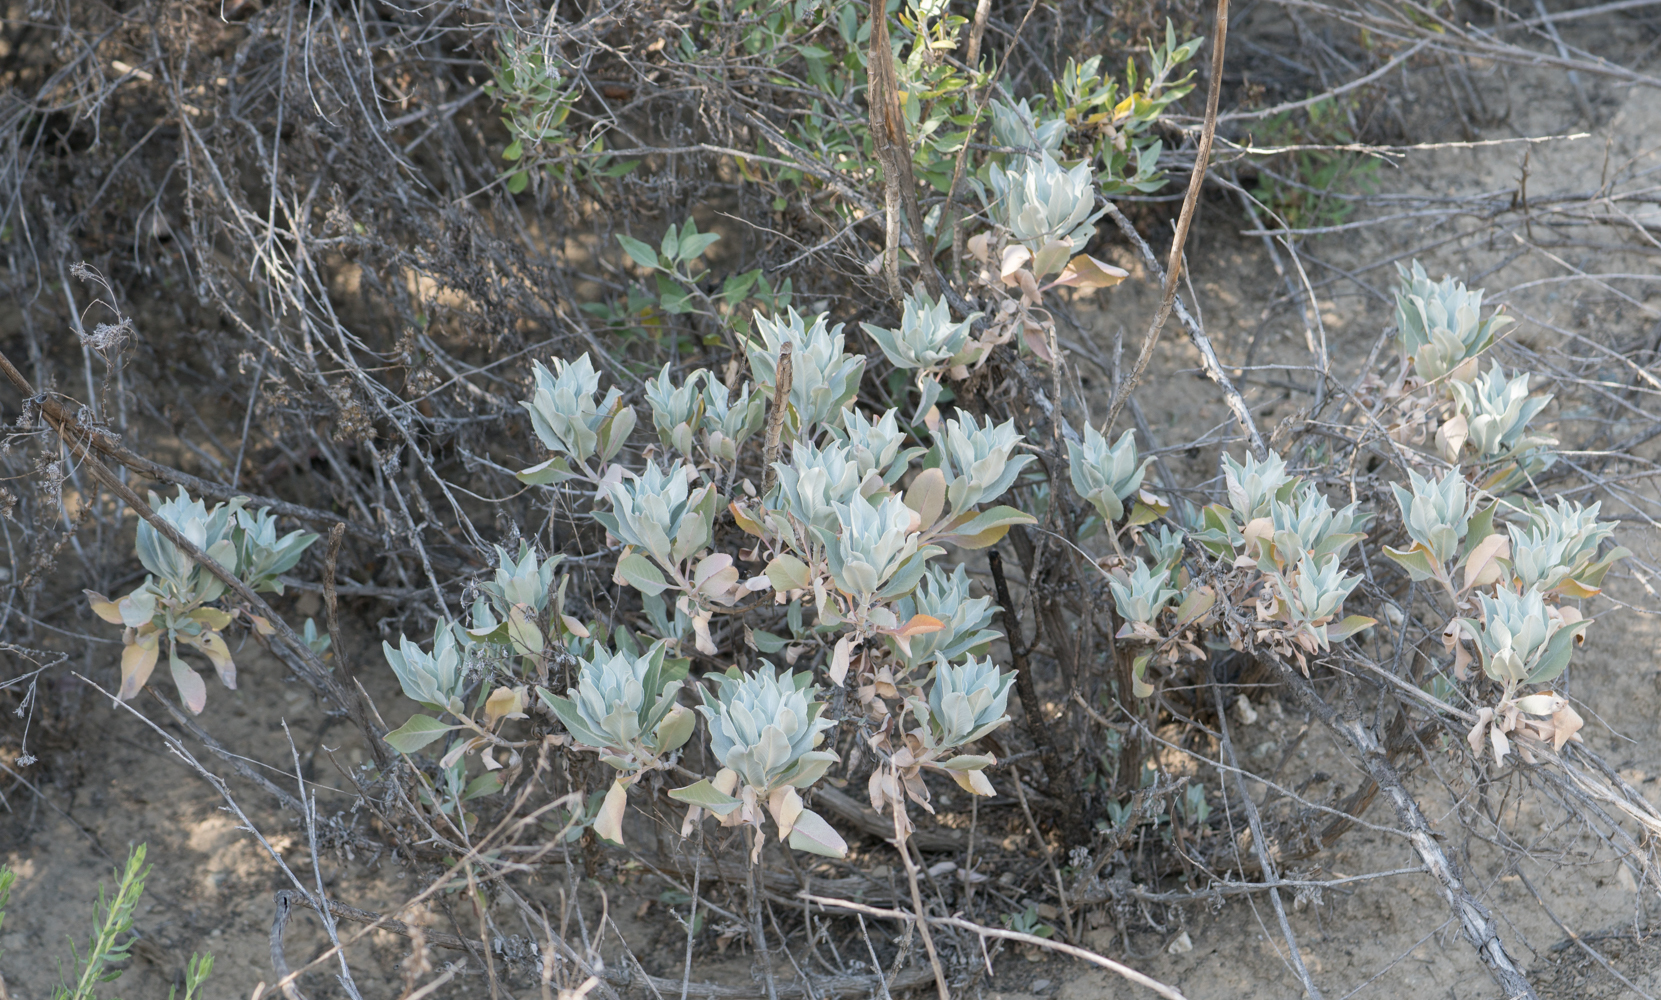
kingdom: Plantae
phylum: Tracheophyta
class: Magnoliopsida
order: Lamiales
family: Lamiaceae
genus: Salvia
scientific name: Salvia apiana
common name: White sage
